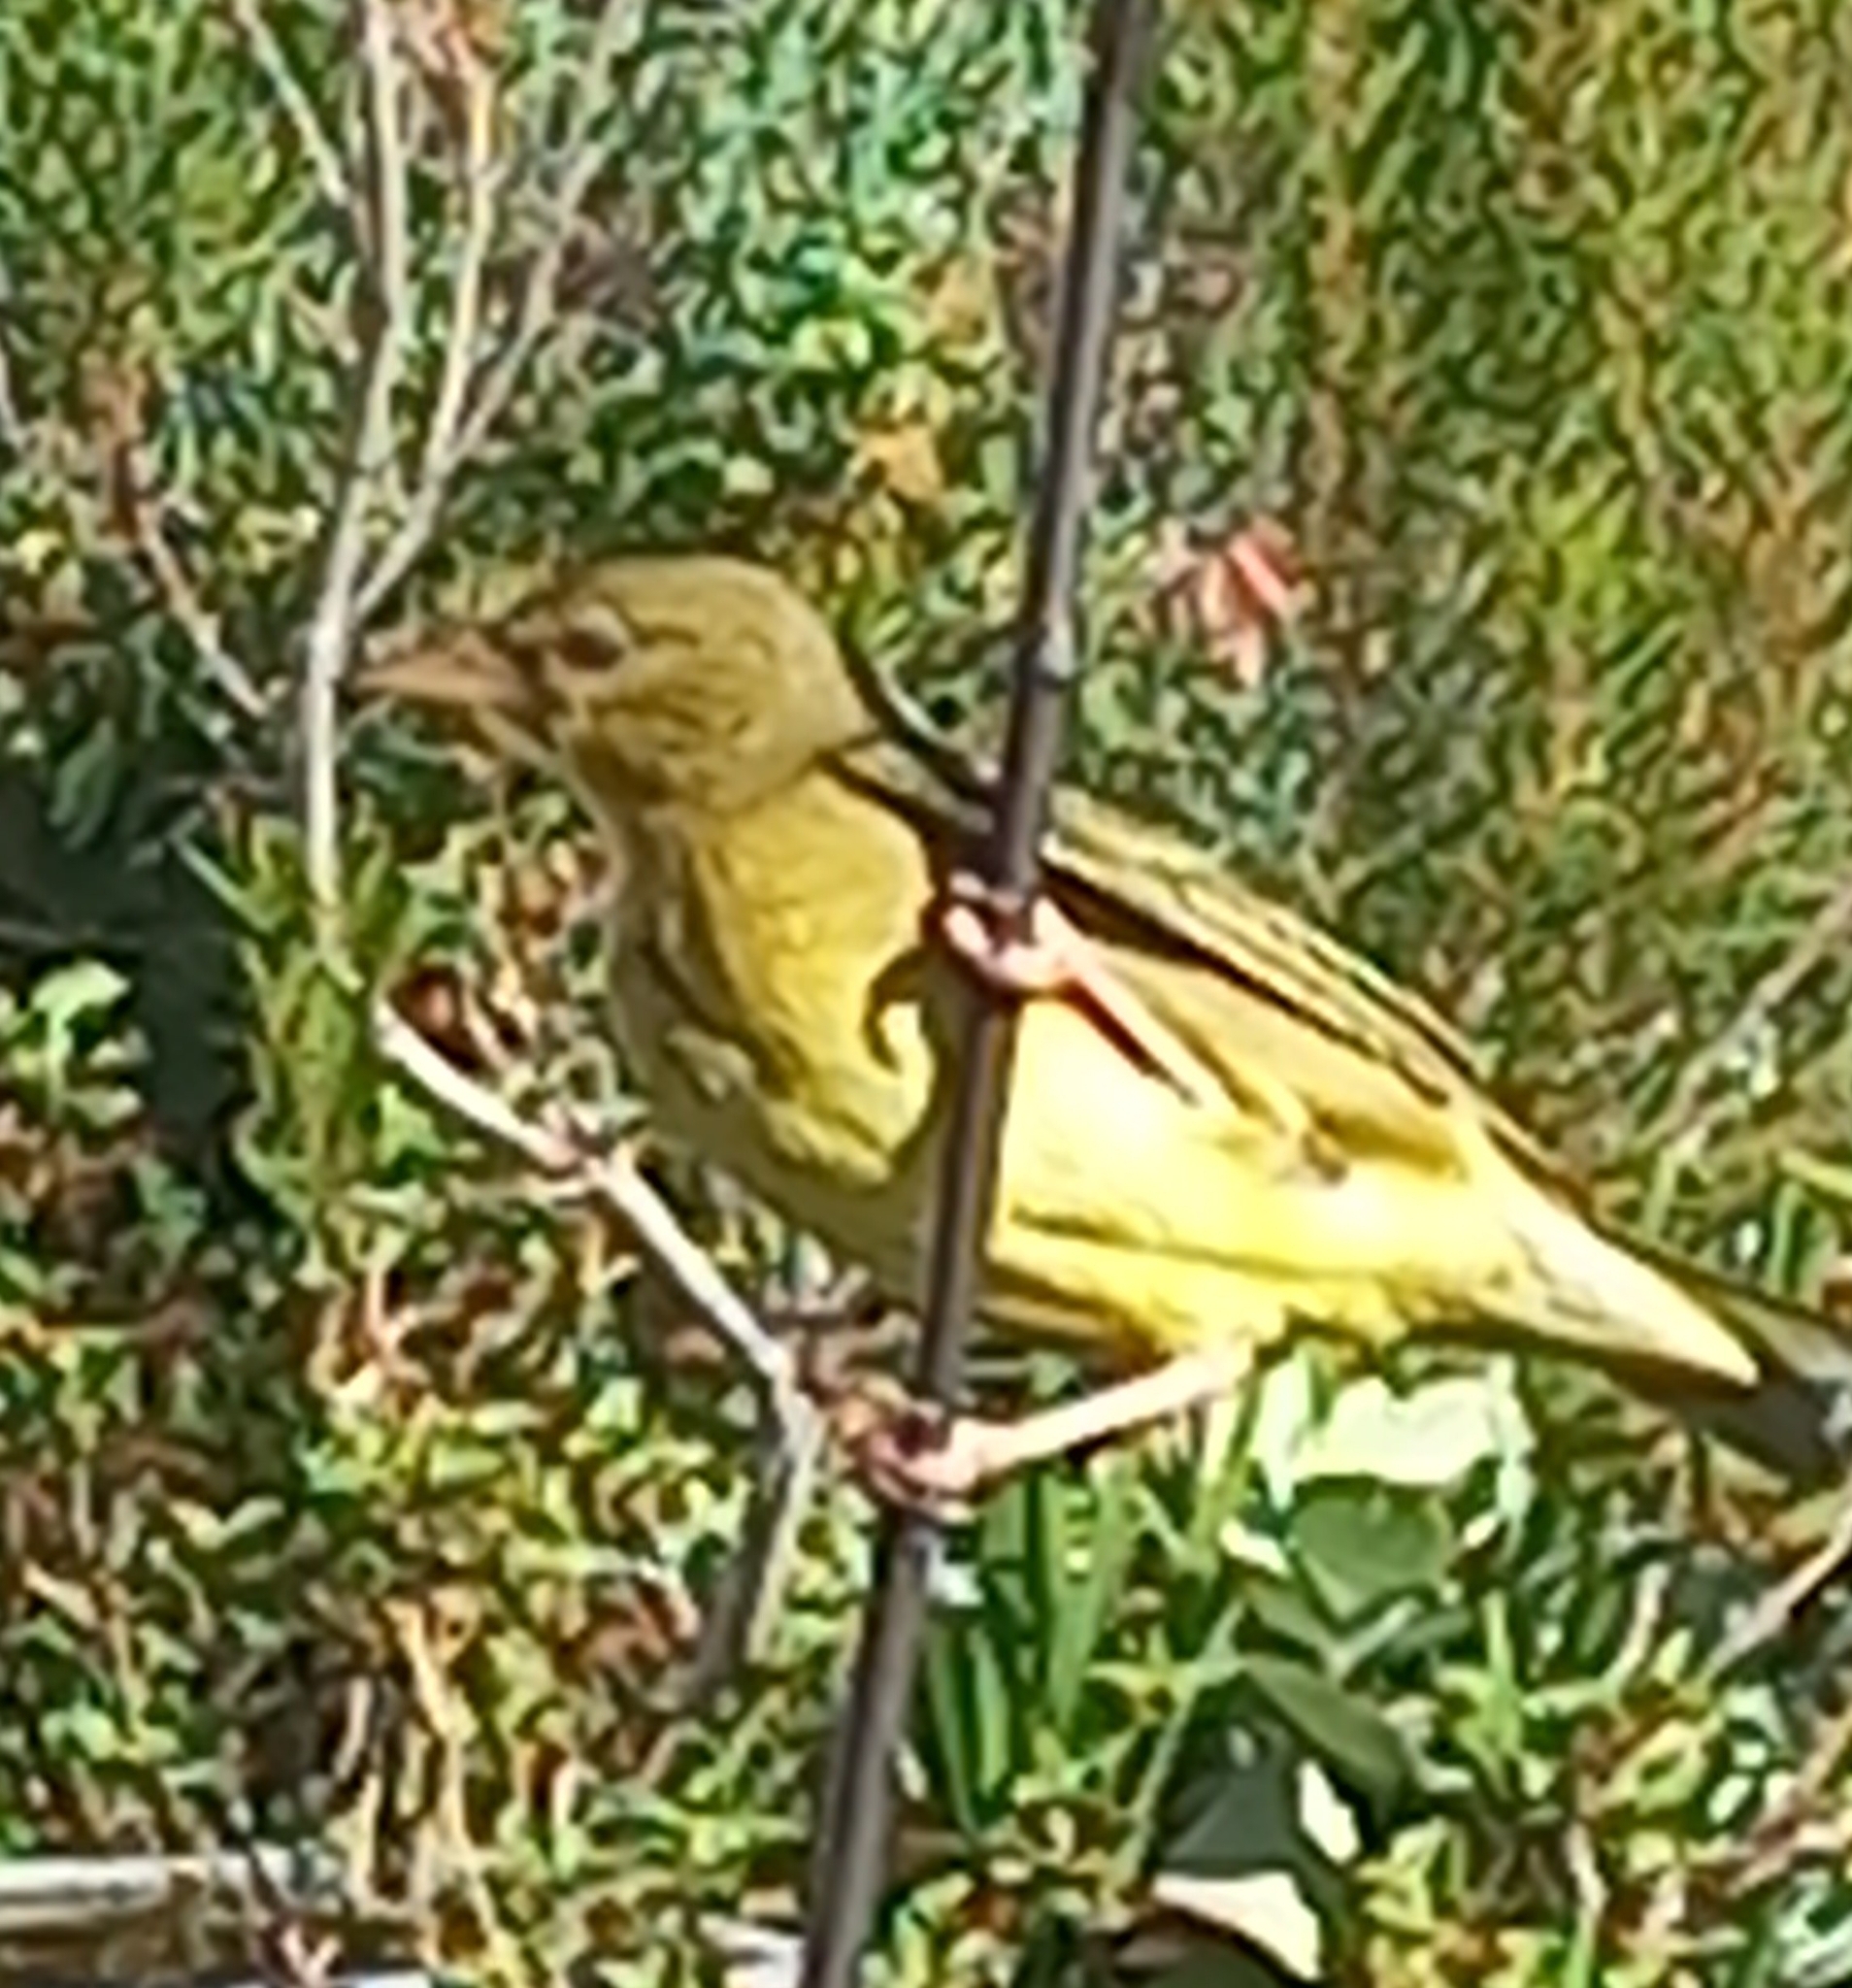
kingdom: Animalia
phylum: Chordata
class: Aves
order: Passeriformes
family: Ploceidae
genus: Ploceus
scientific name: Ploceus capensis
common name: Cape weaver
